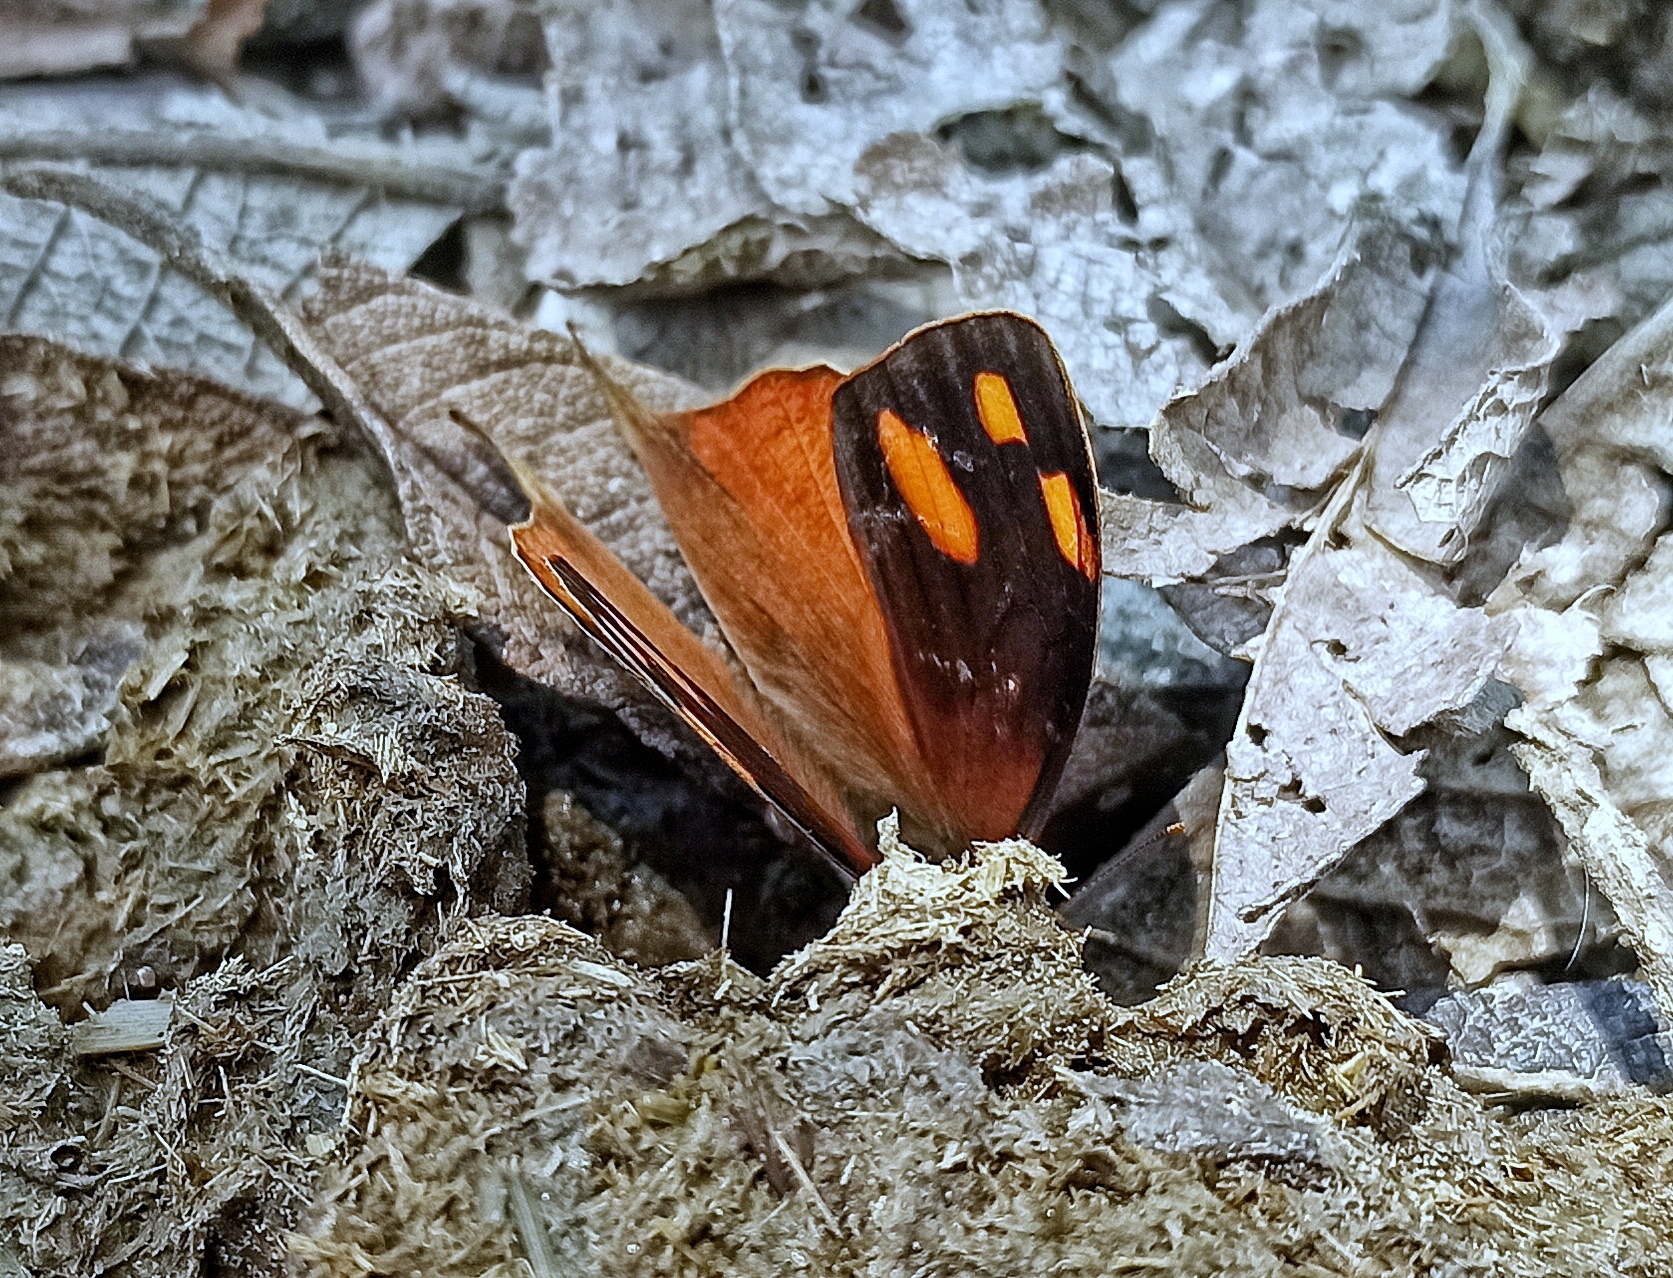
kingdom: Animalia
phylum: Arthropoda
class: Insecta
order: Lepidoptera
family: Nymphalidae
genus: Corades
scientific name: Corades chelonis
